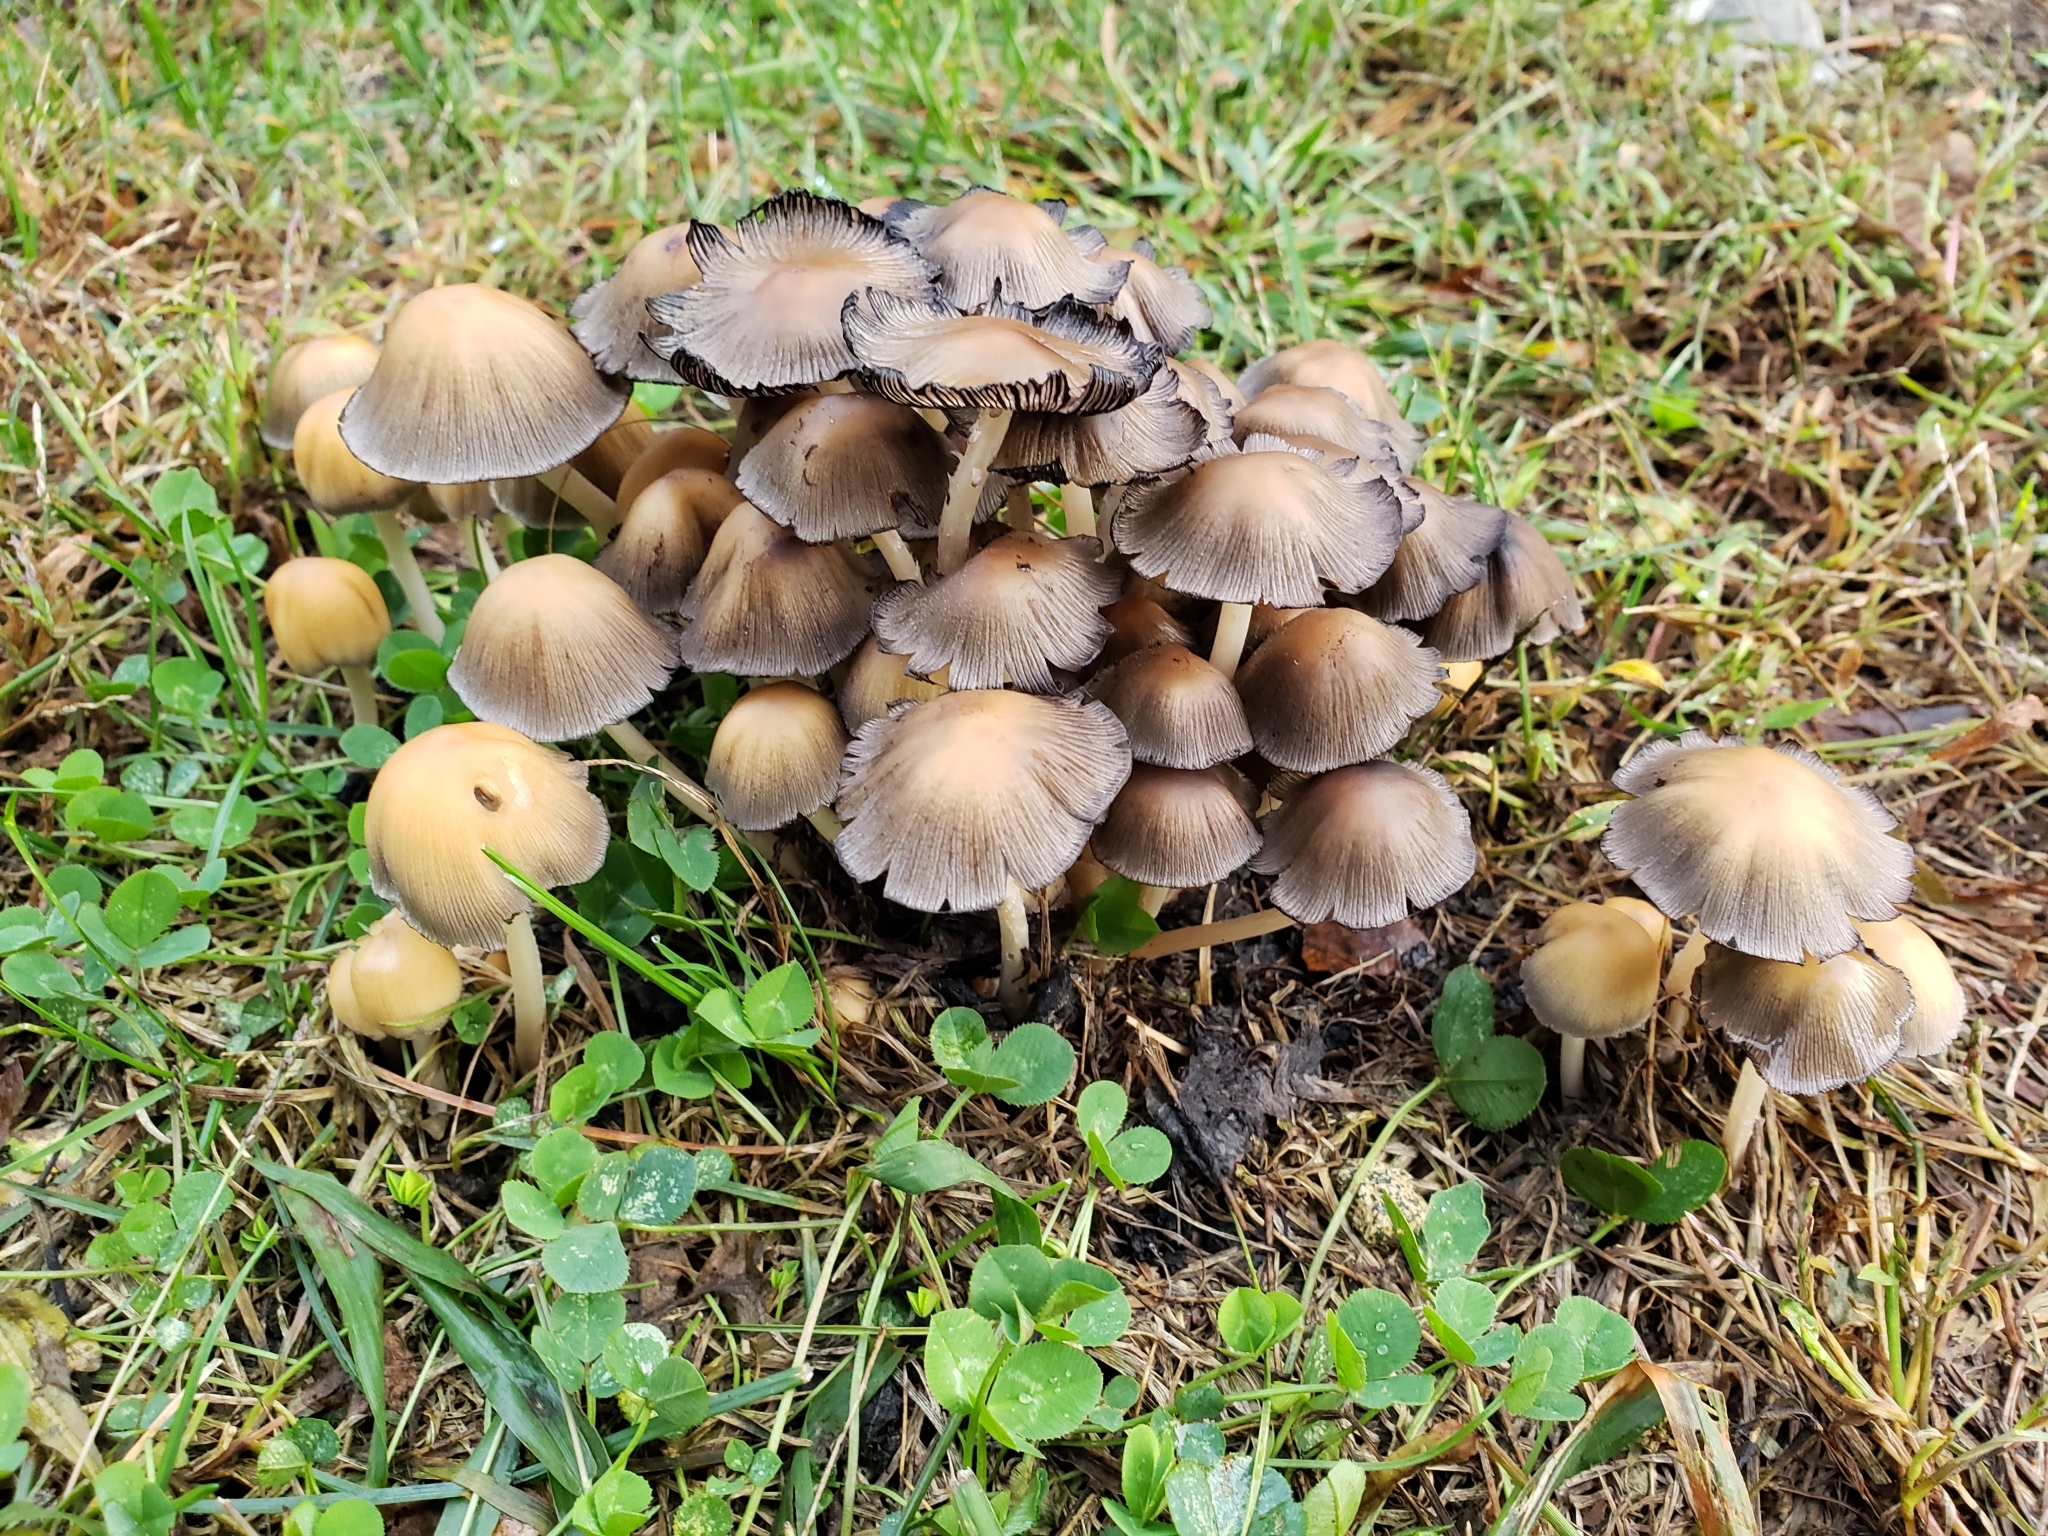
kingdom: Fungi
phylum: Basidiomycota
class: Agaricomycetes
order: Agaricales
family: Psathyrellaceae
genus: Coprinellus
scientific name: Coprinellus micaceus
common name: Glistening ink-cap
